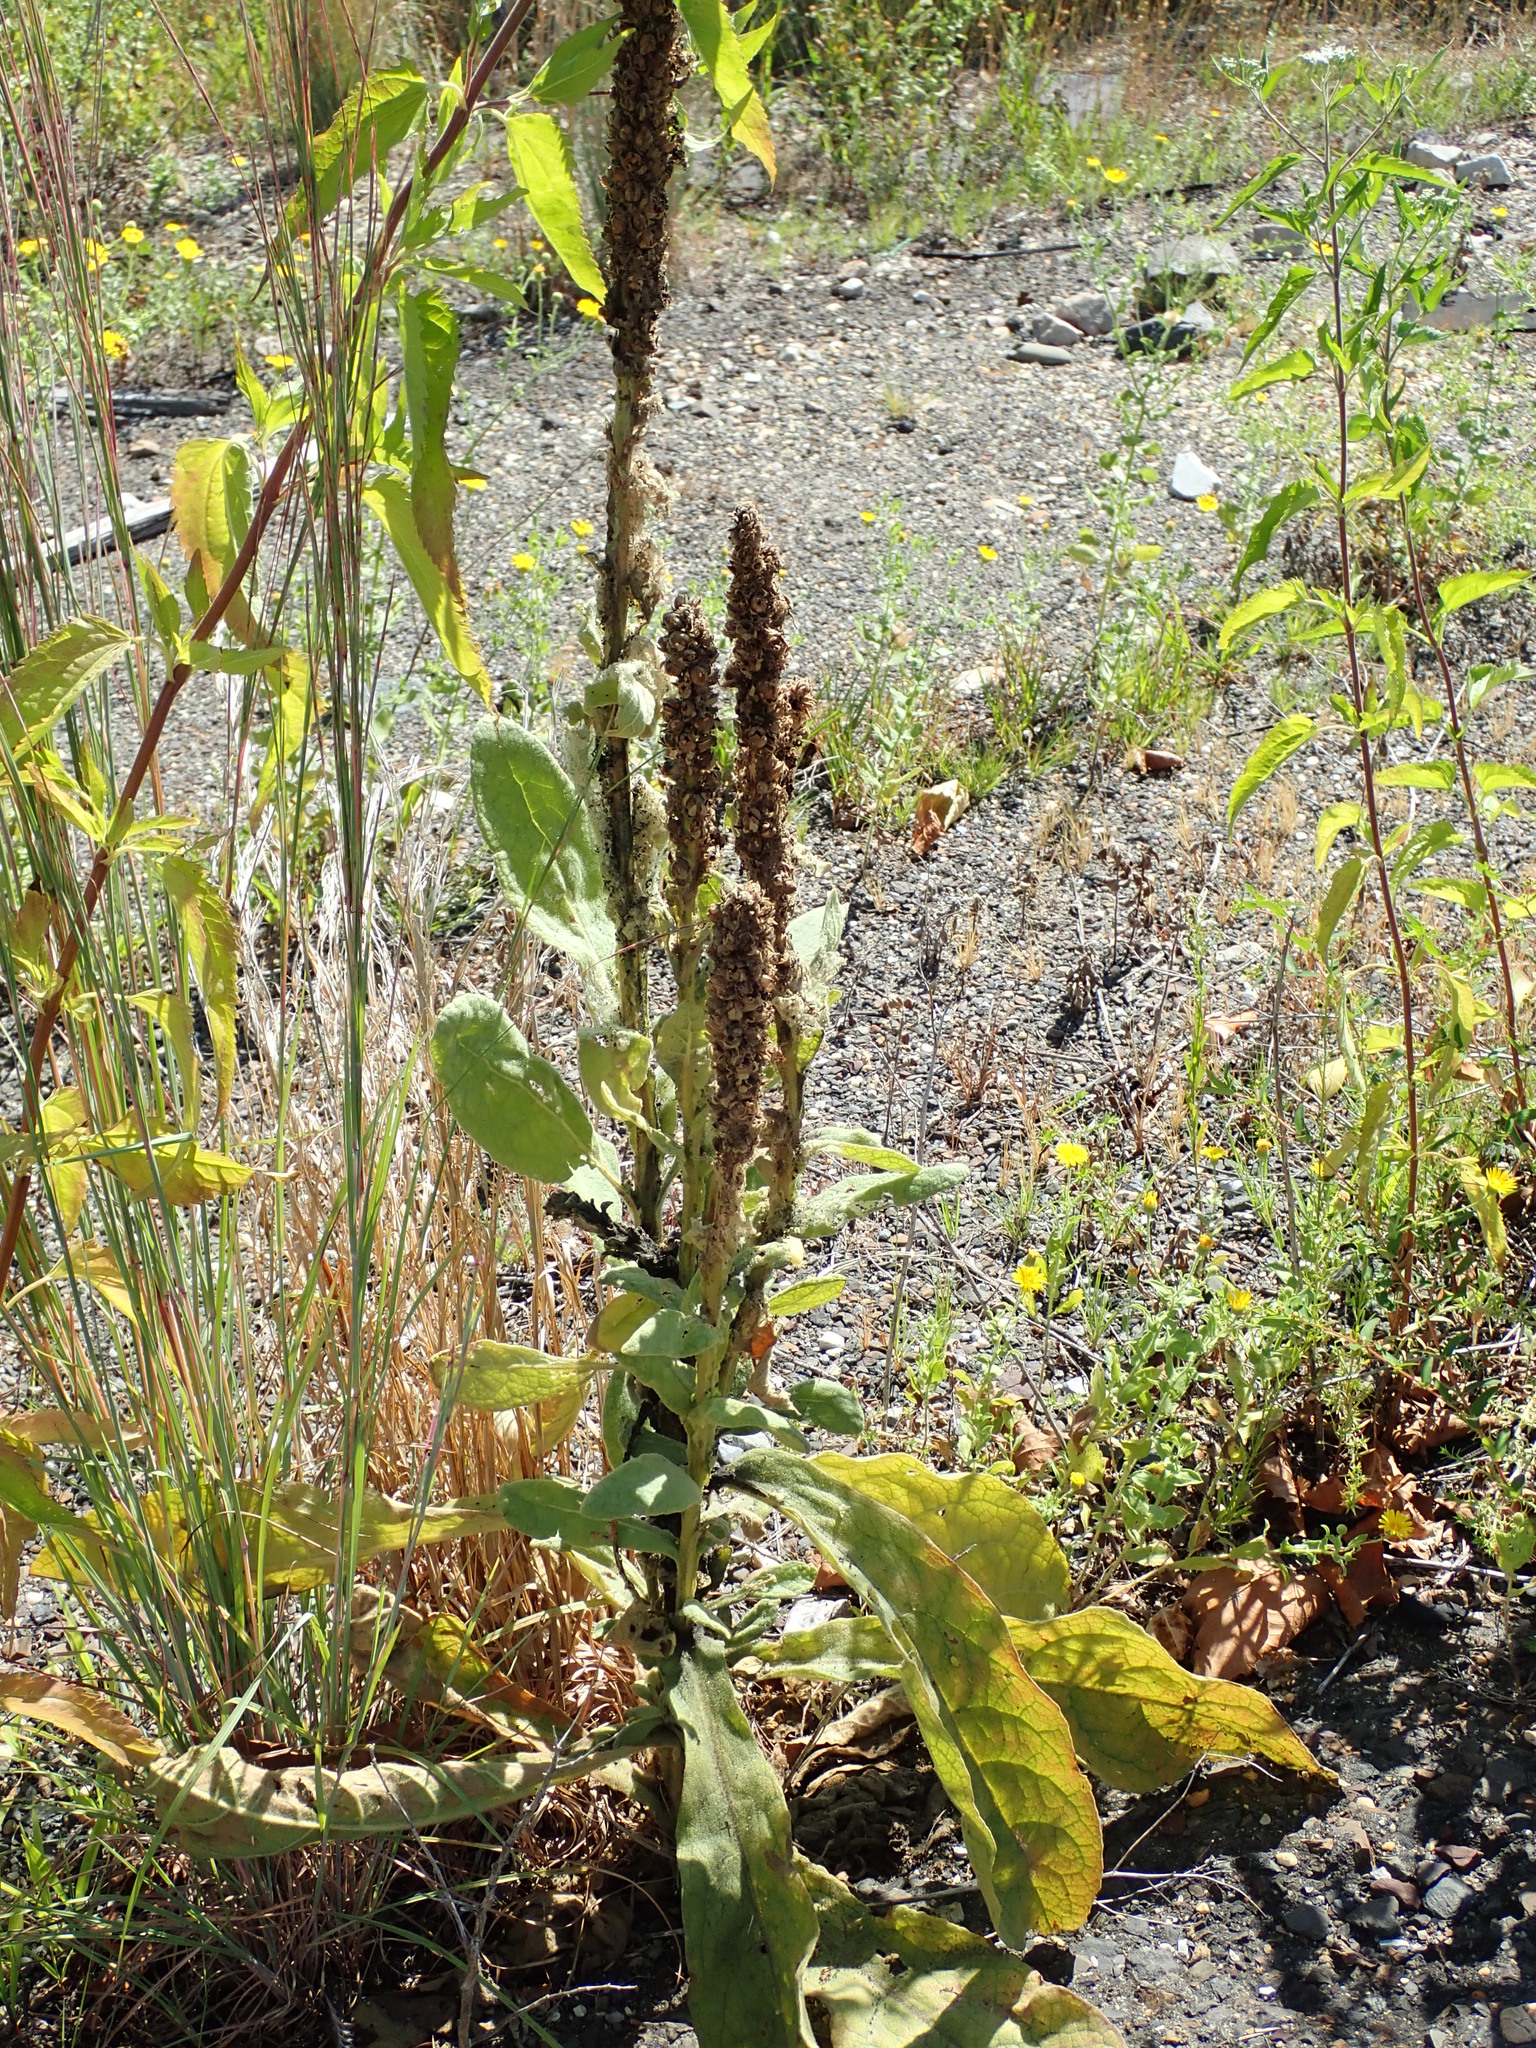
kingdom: Plantae
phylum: Tracheophyta
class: Magnoliopsida
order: Lamiales
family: Scrophulariaceae
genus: Verbascum
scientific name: Verbascum thapsus
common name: Common mullein
